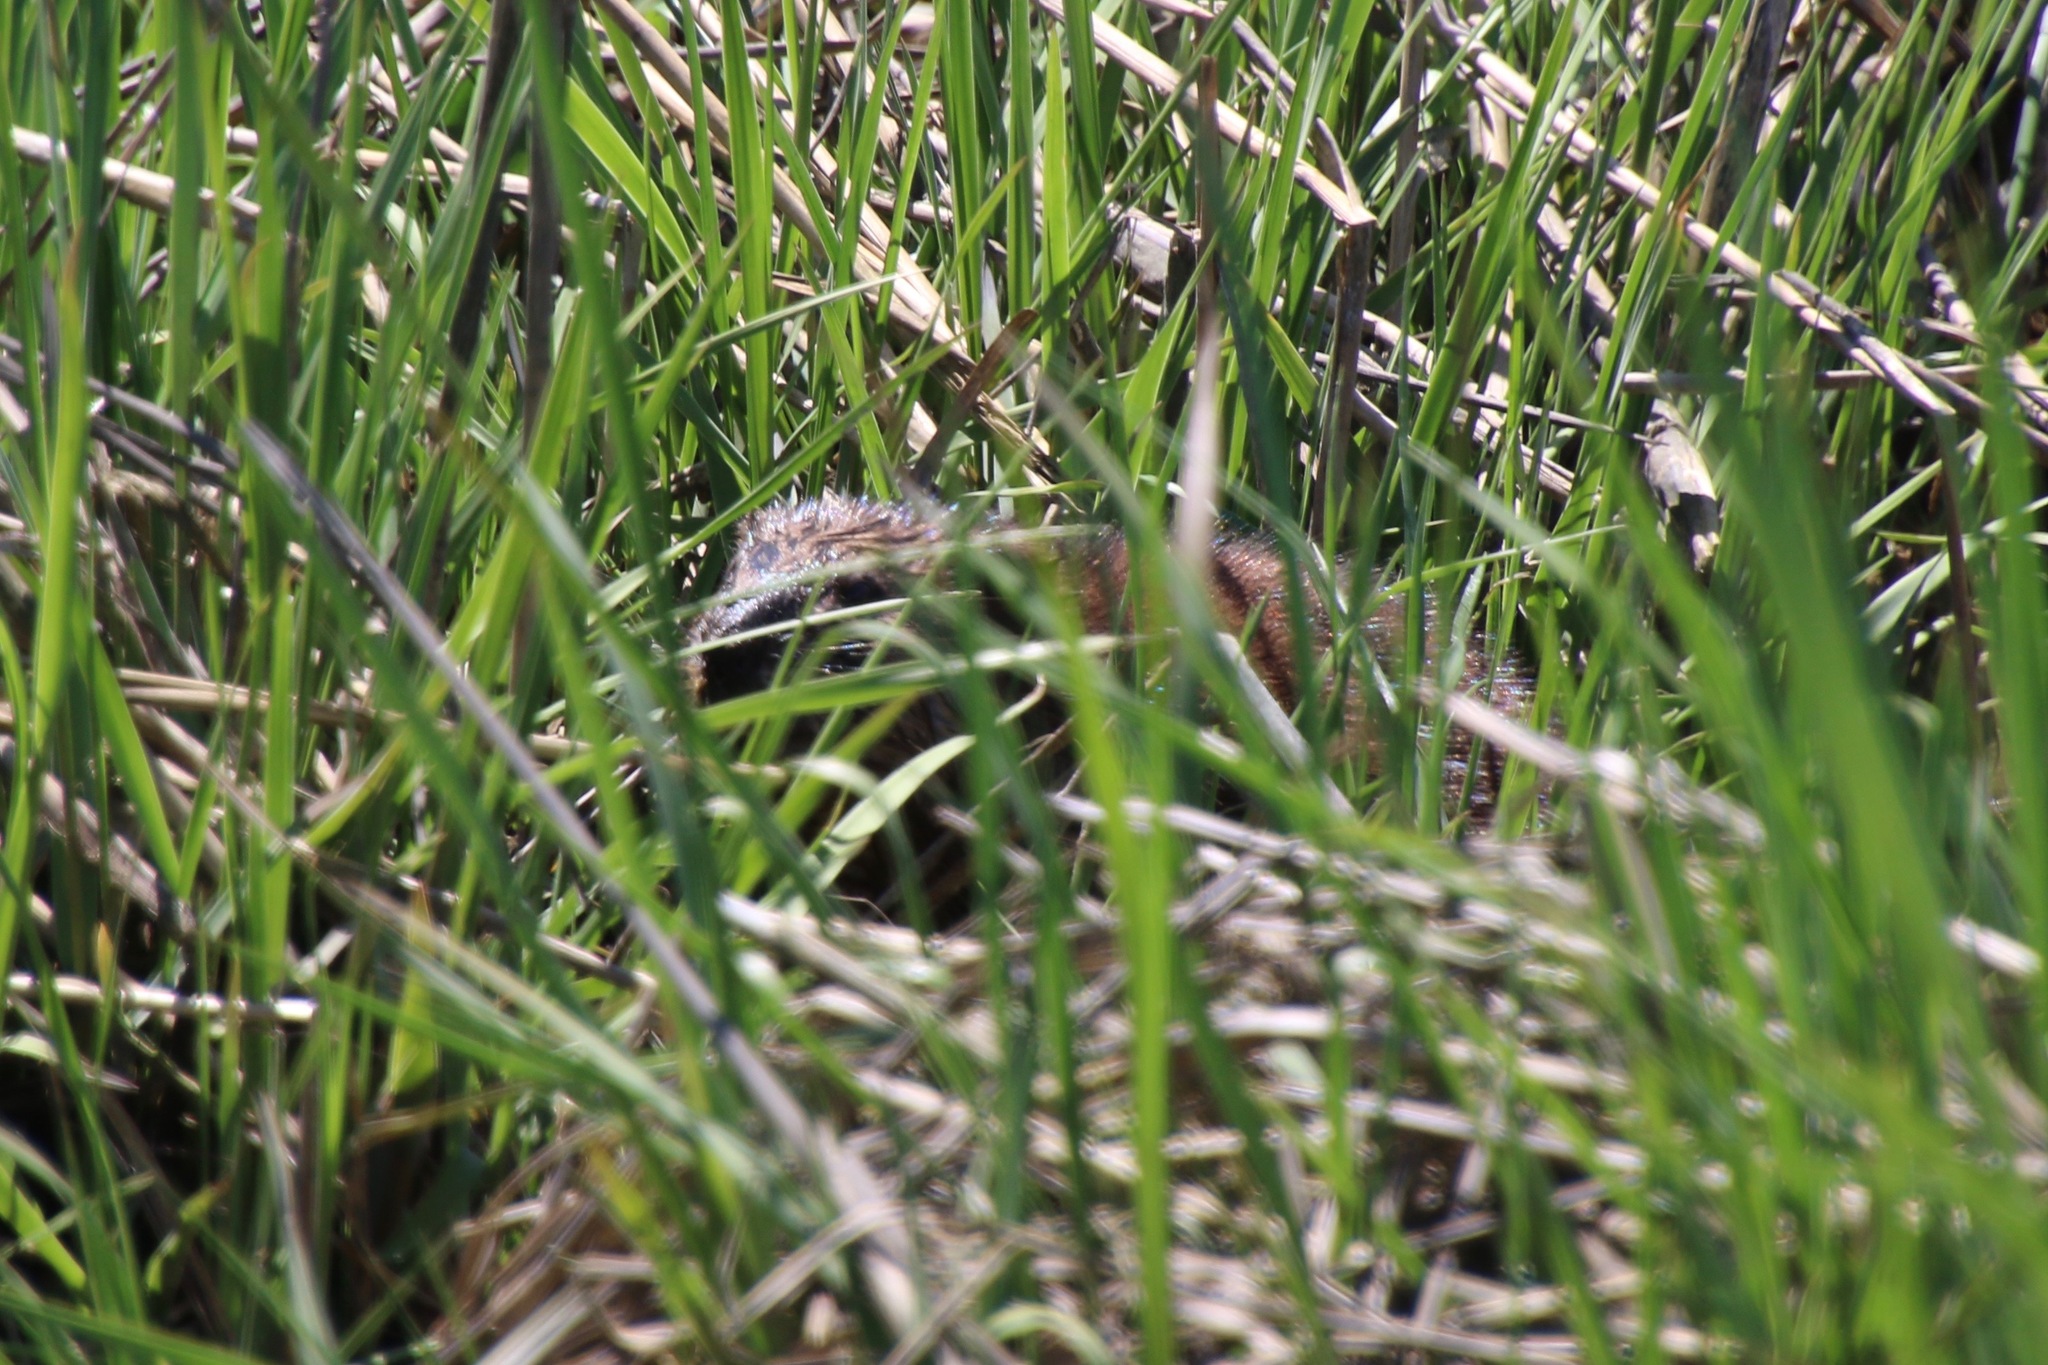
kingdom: Animalia
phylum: Chordata
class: Mammalia
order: Rodentia
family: Cricetidae
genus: Ondatra
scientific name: Ondatra zibethicus
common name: Muskrat
